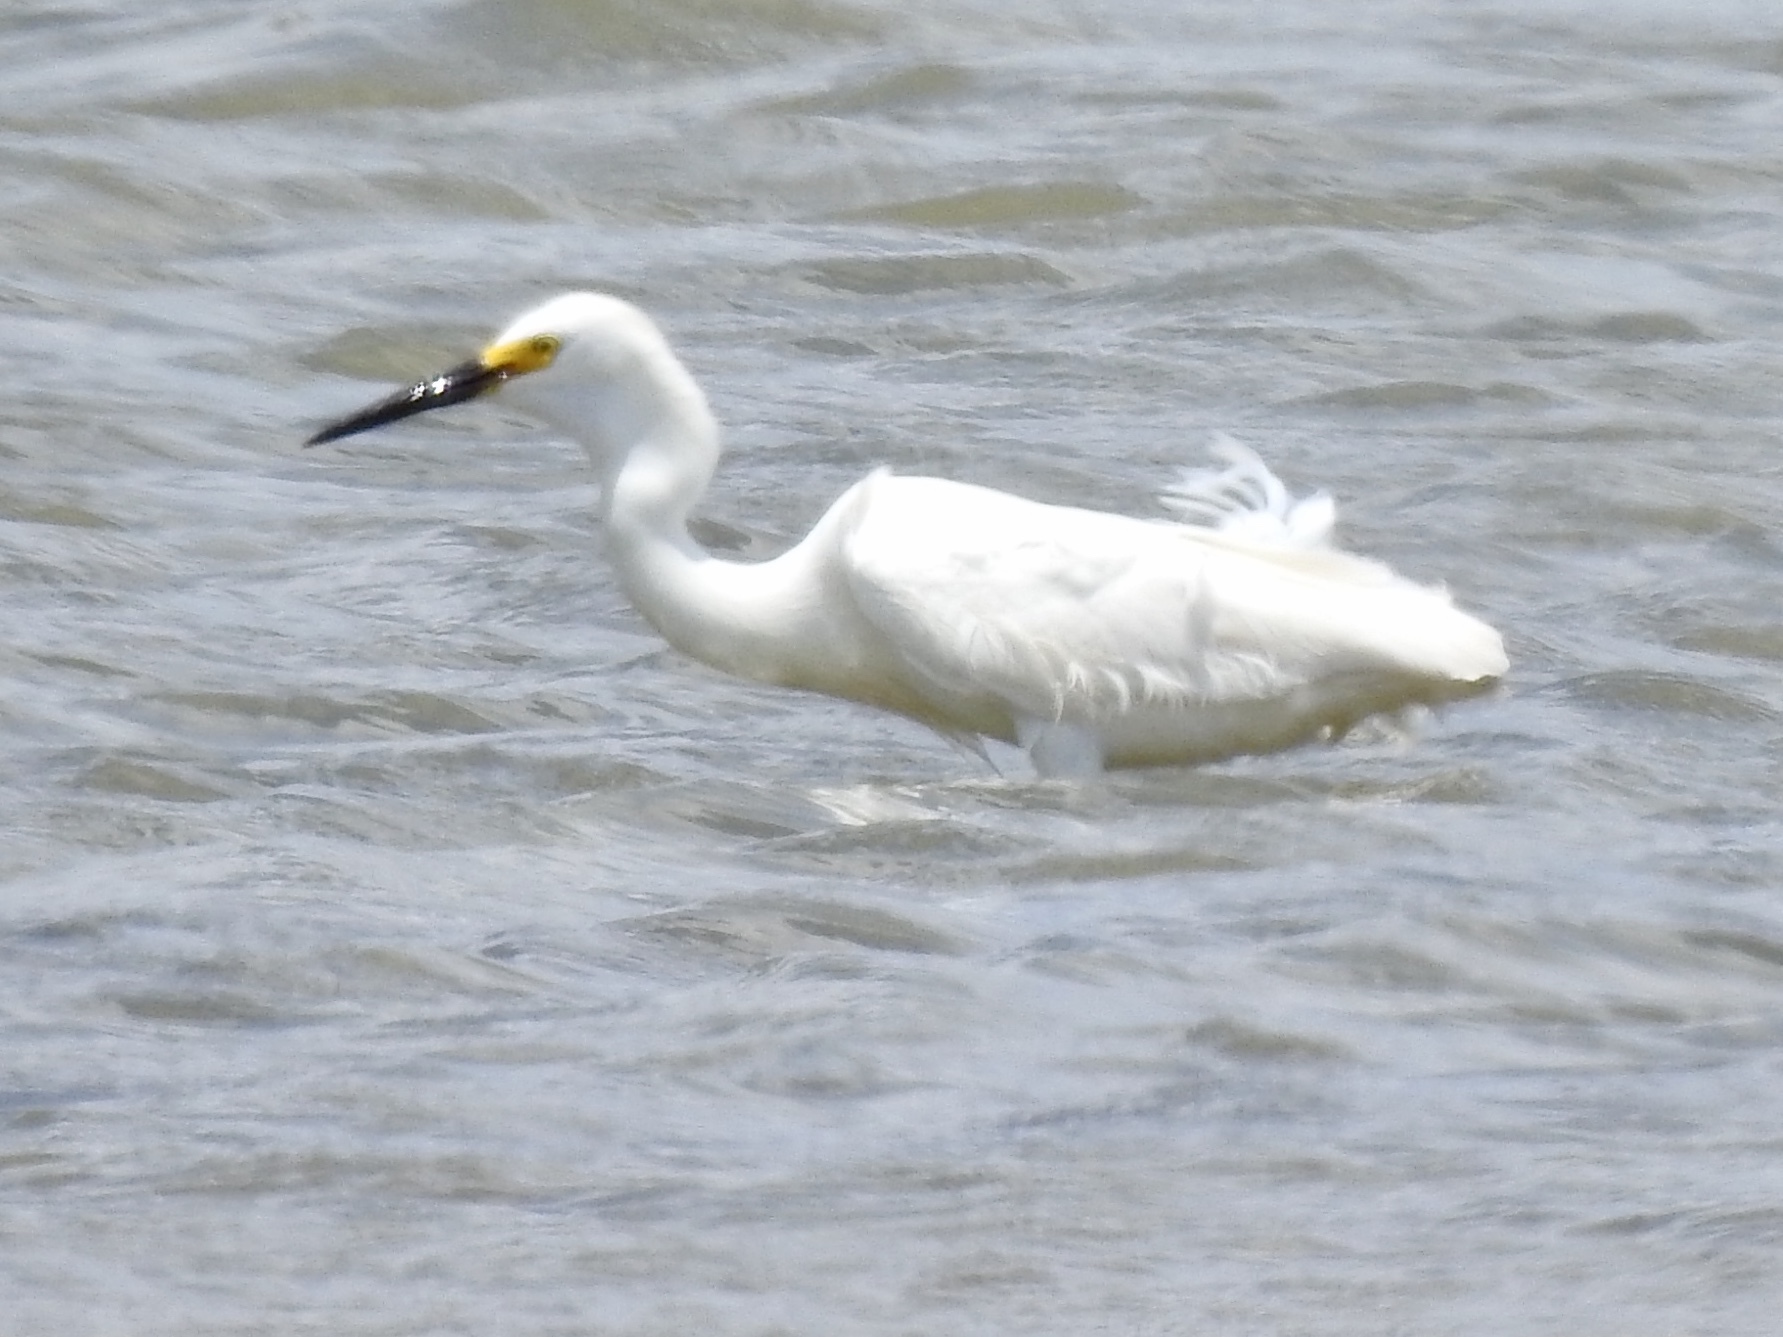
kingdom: Animalia
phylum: Chordata
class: Aves
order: Pelecaniformes
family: Ardeidae
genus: Egretta
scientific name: Egretta thula
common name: Snowy egret
